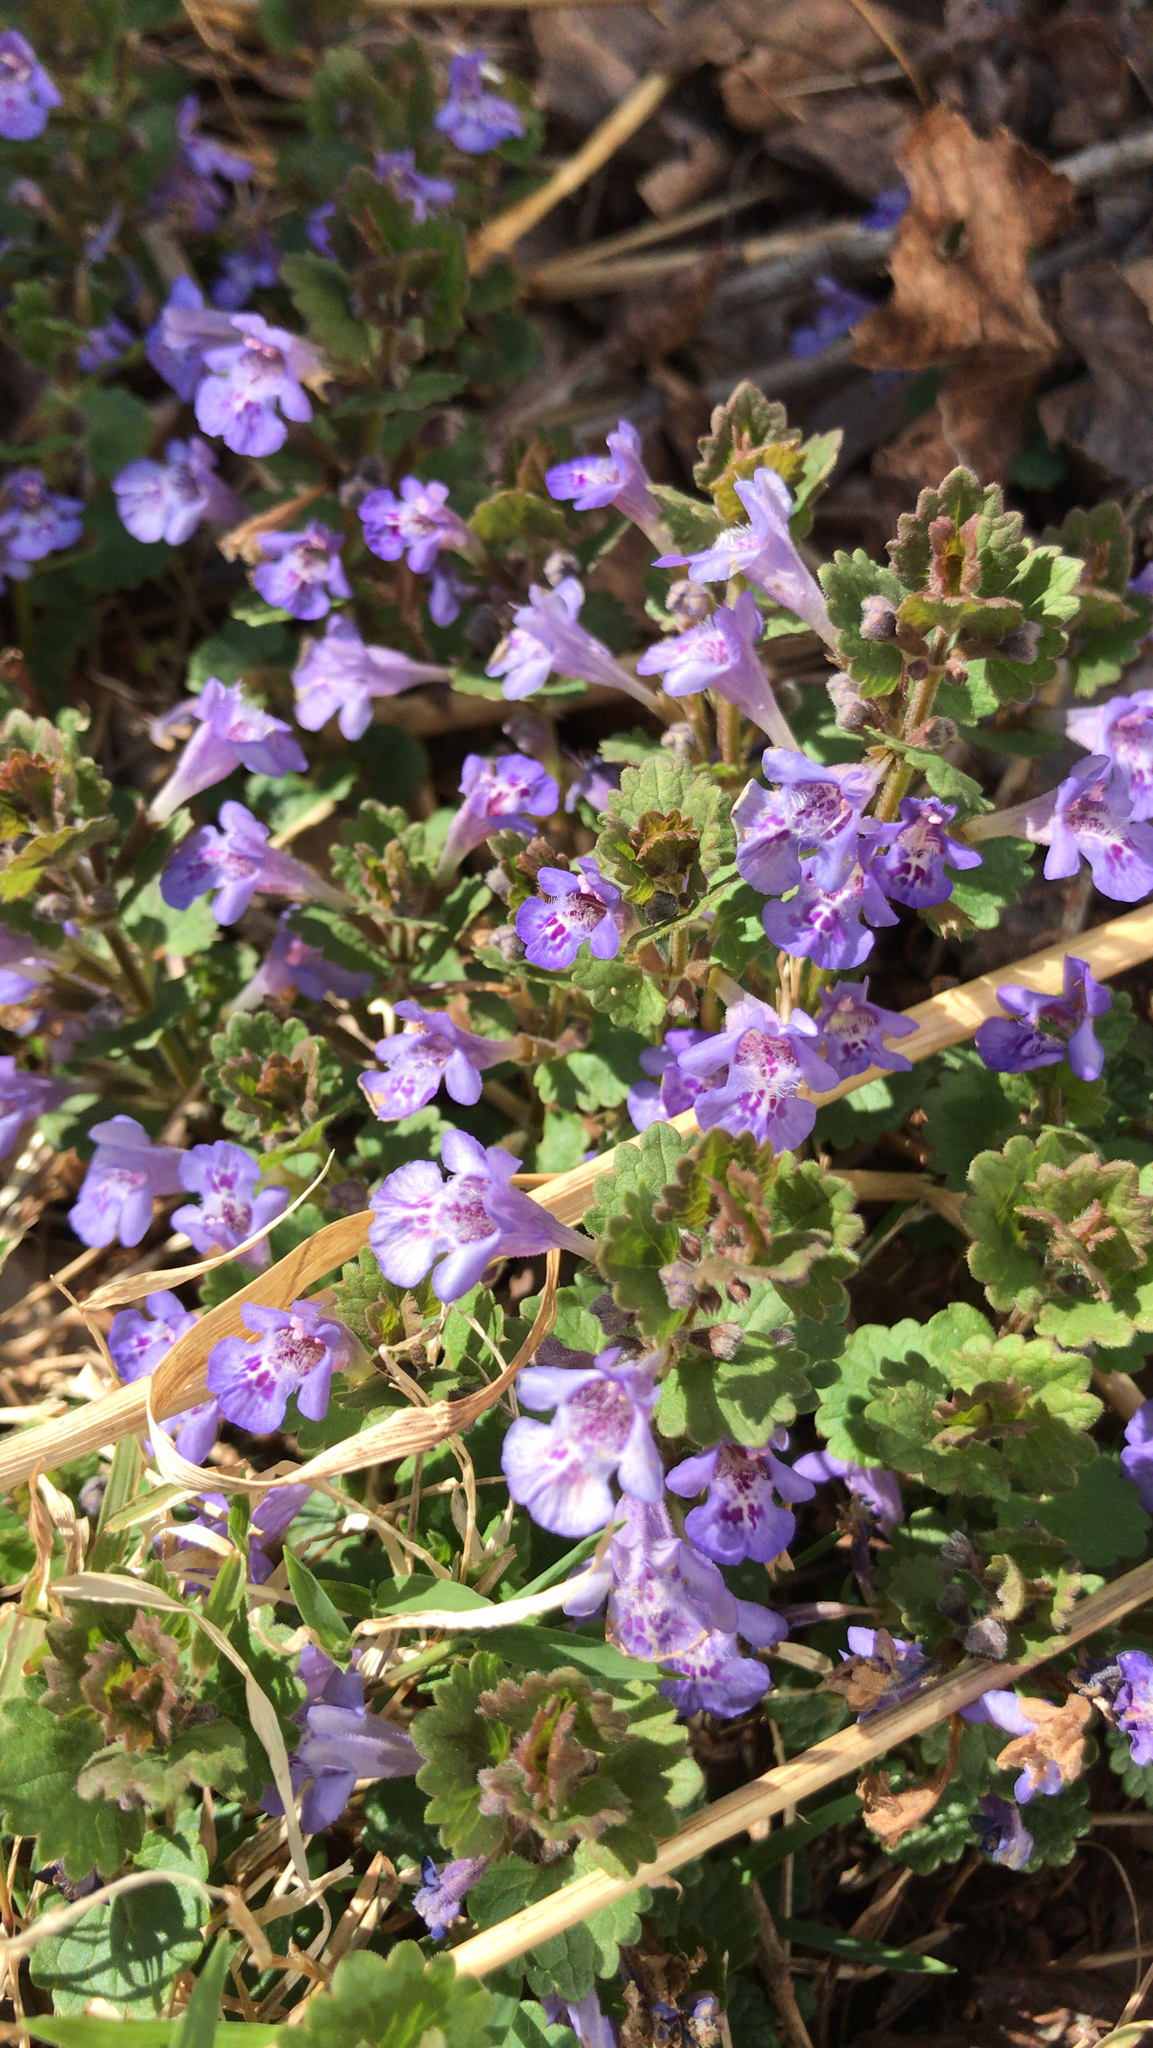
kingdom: Plantae
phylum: Tracheophyta
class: Magnoliopsida
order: Lamiales
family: Lamiaceae
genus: Glechoma
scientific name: Glechoma hederacea
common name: Ground ivy
